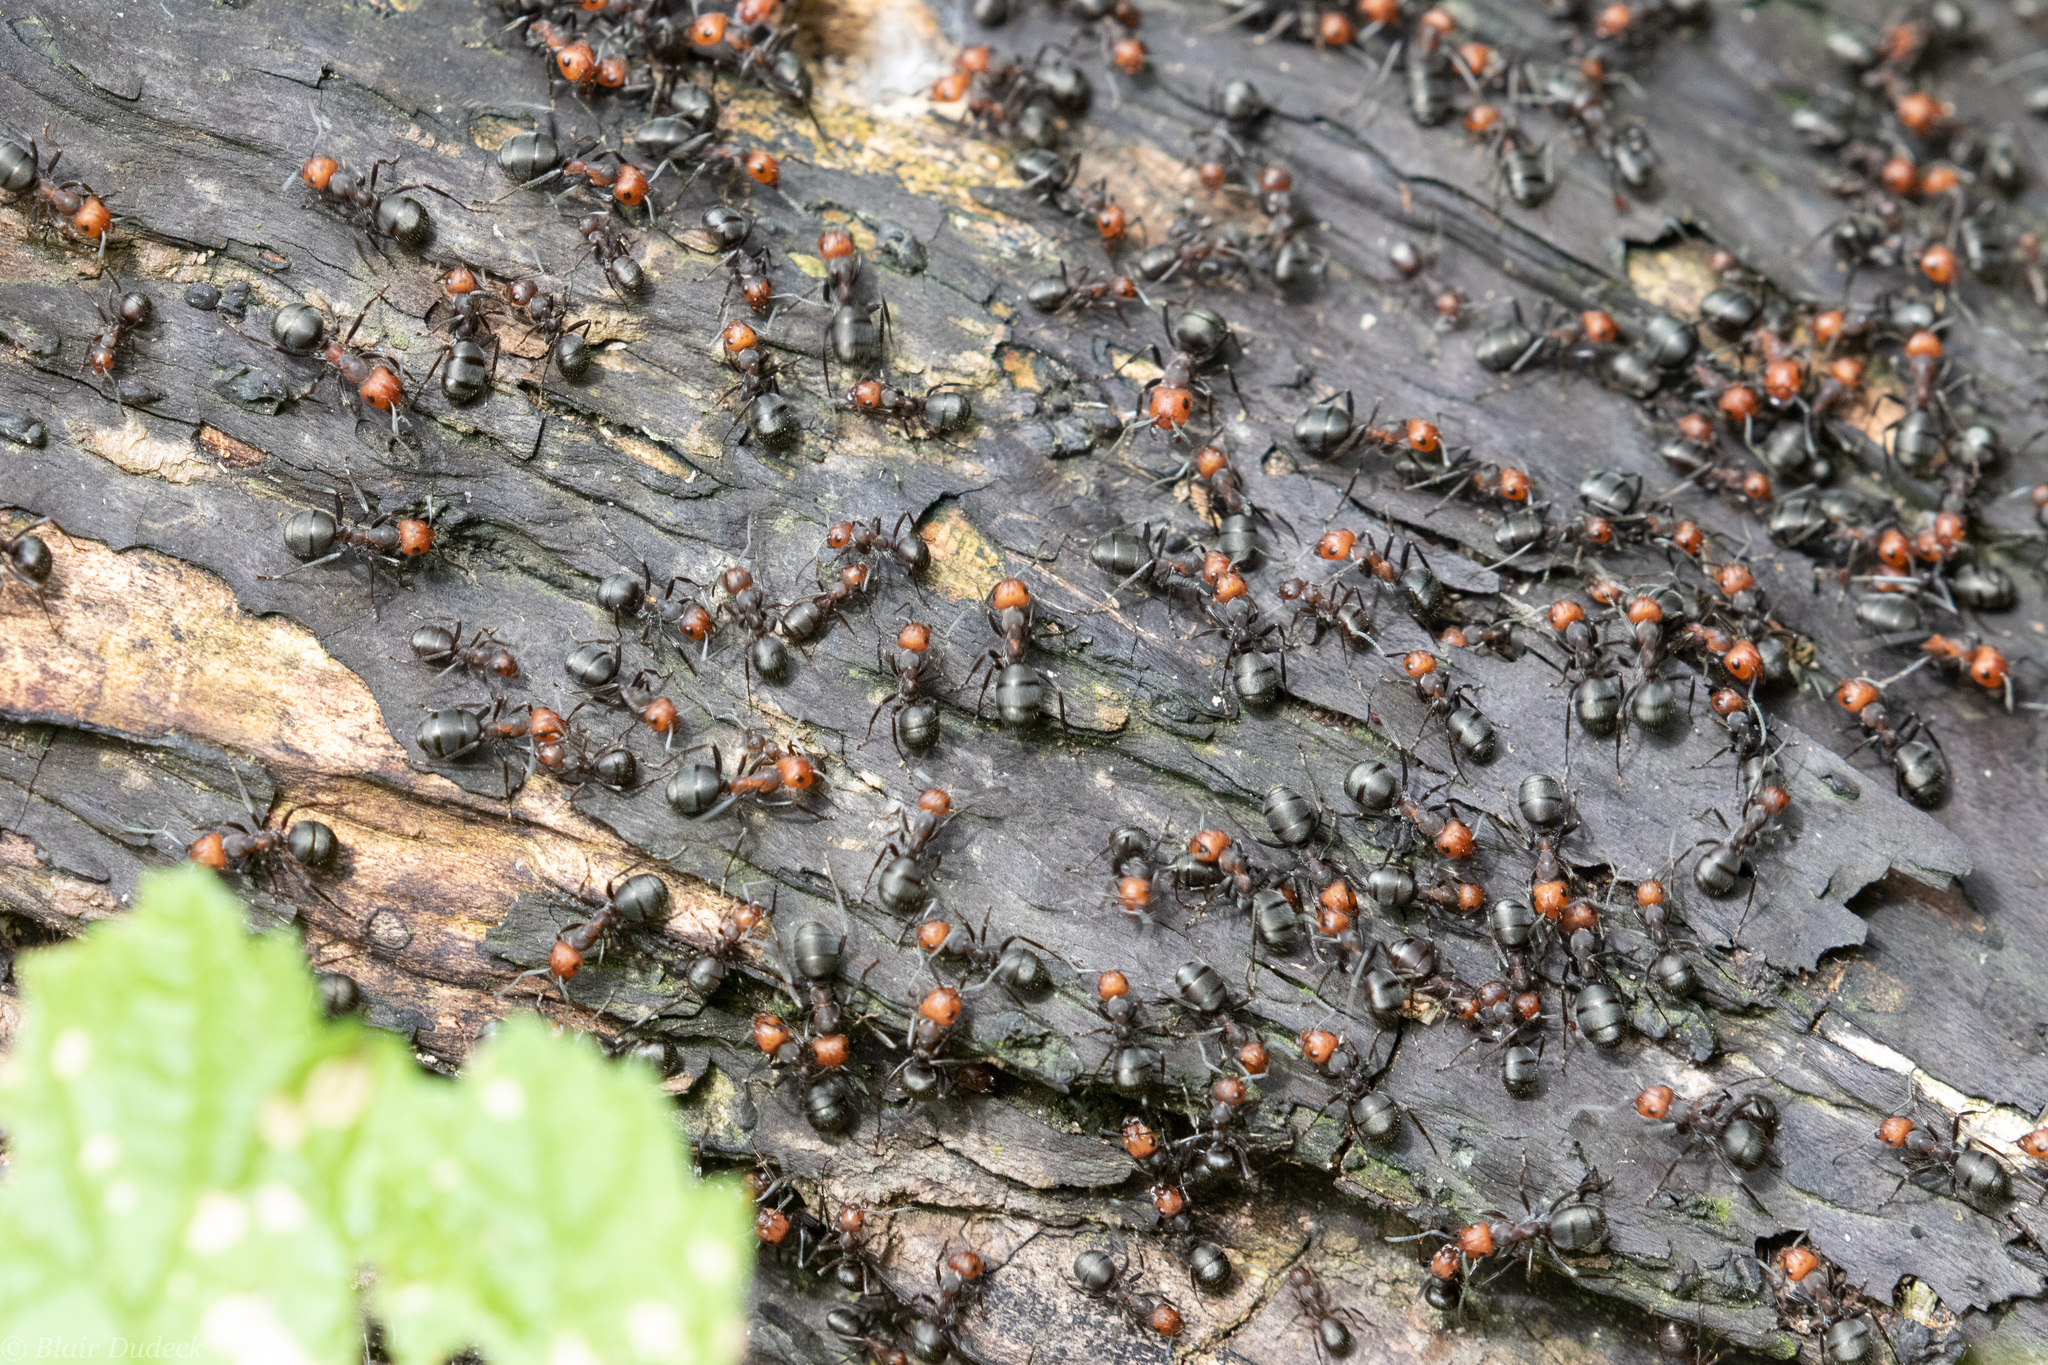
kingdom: Animalia
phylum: Arthropoda
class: Insecta
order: Hymenoptera
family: Formicidae
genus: Formica
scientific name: Formica obscuripes
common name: Western thatching ant
